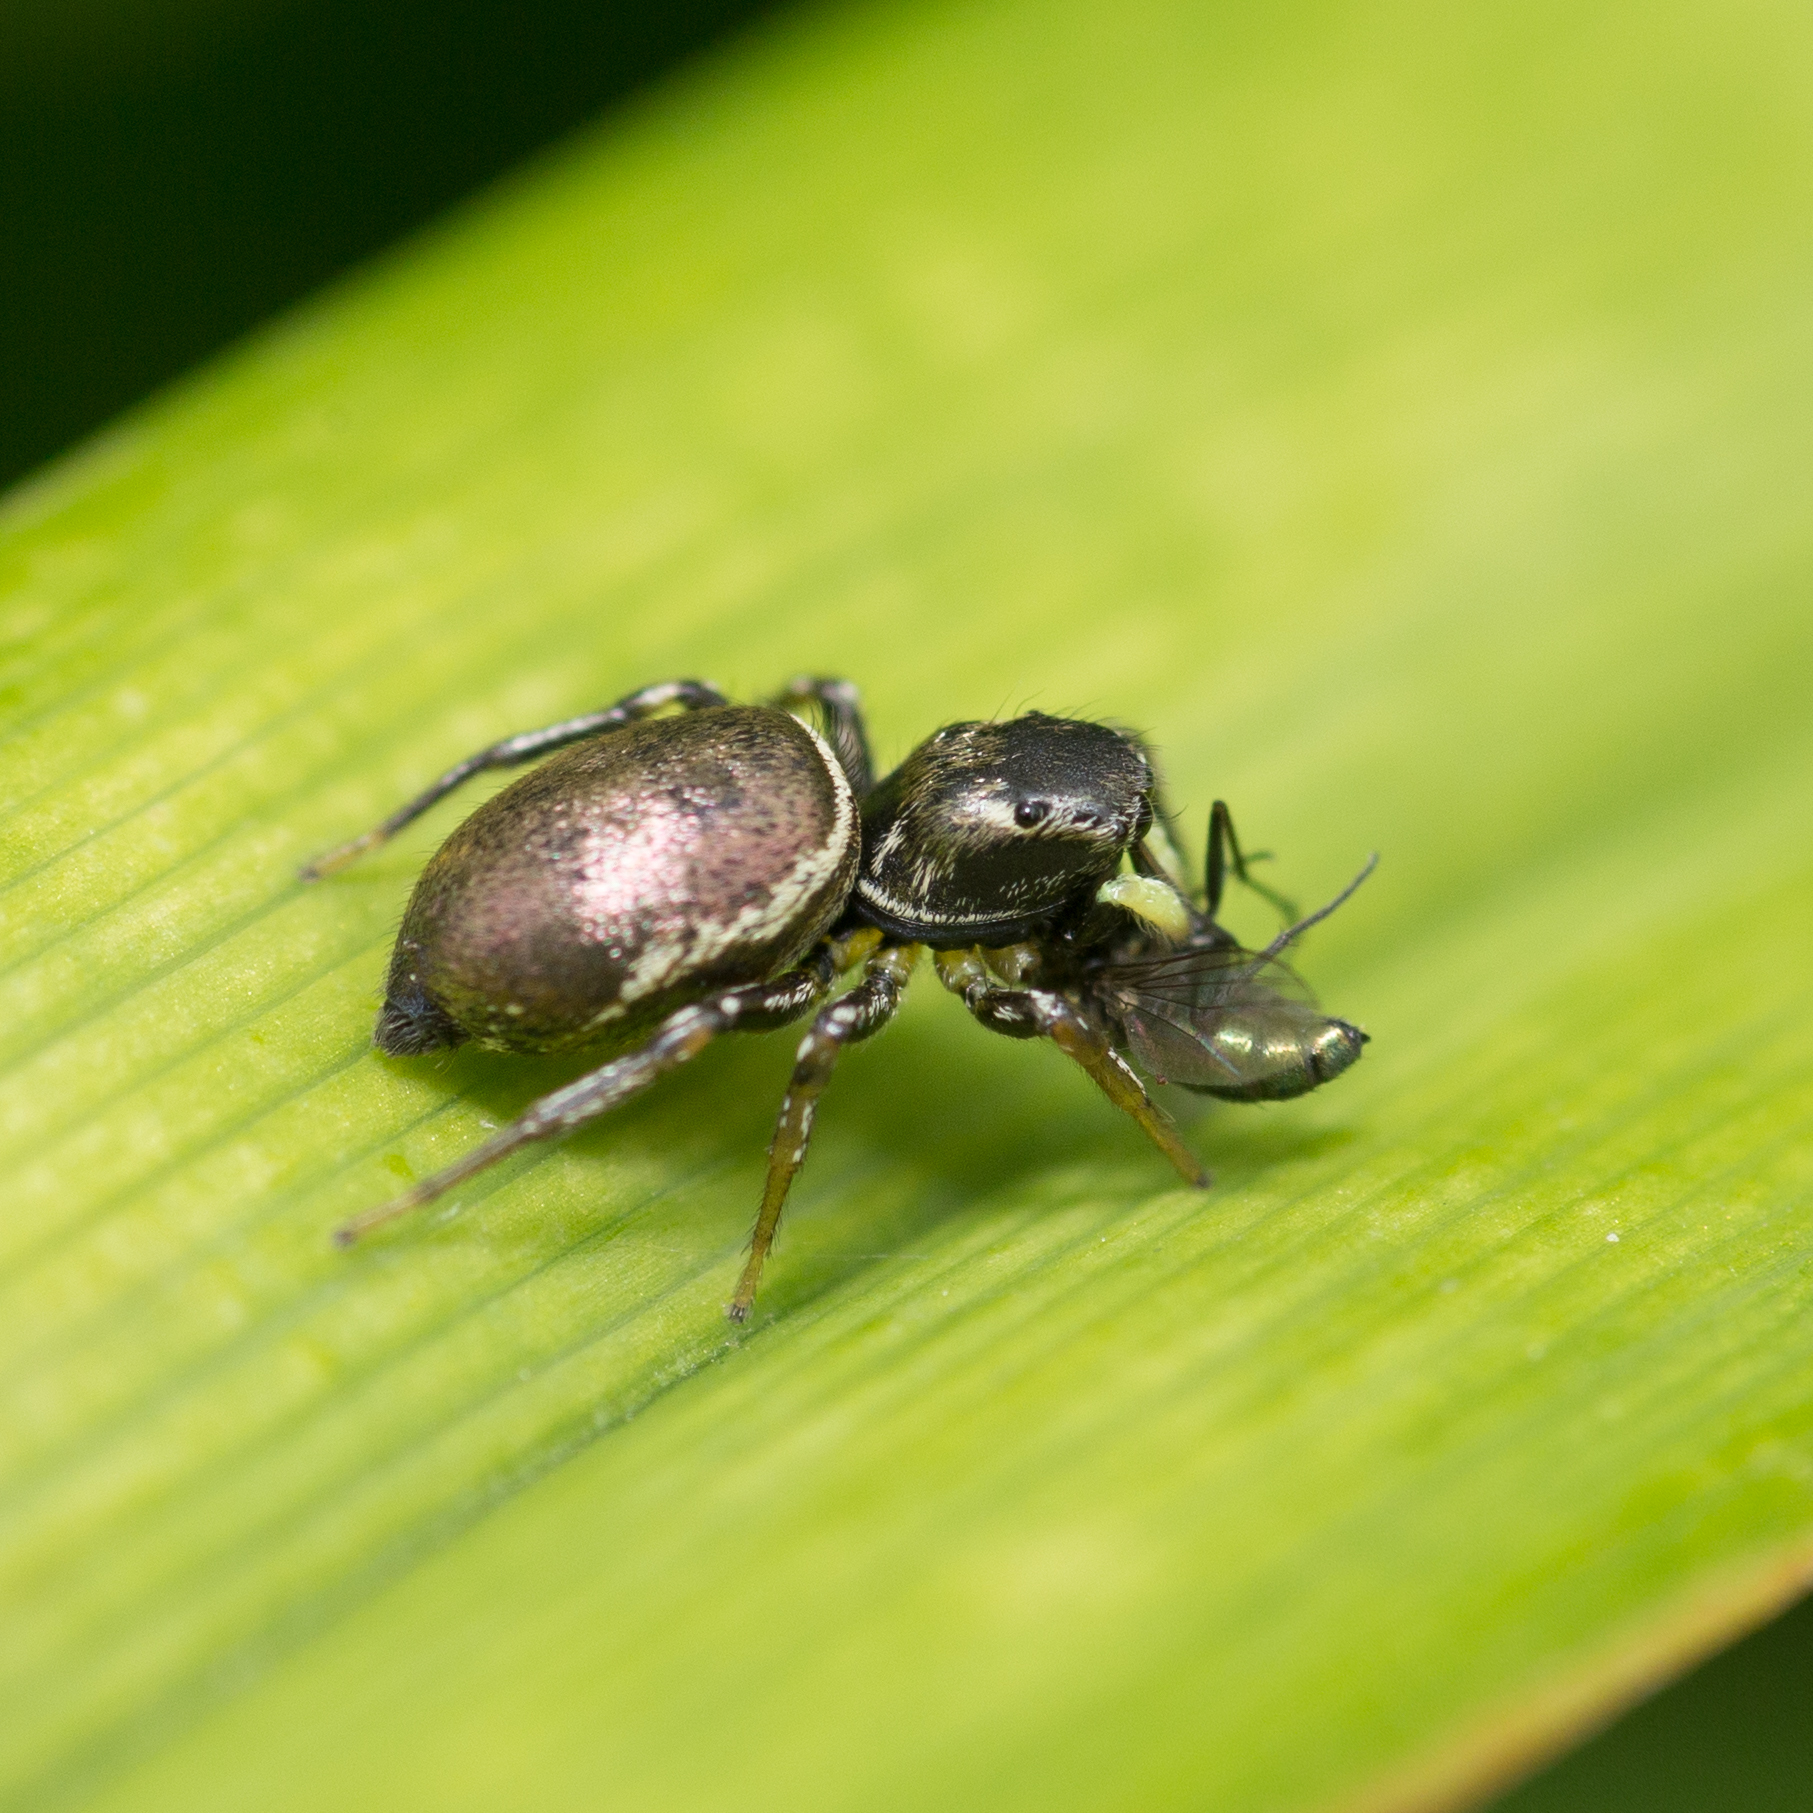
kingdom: Animalia
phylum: Arthropoda
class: Arachnida
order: Araneae
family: Salticidae
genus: Heliophanus
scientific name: Heliophanus auratus
